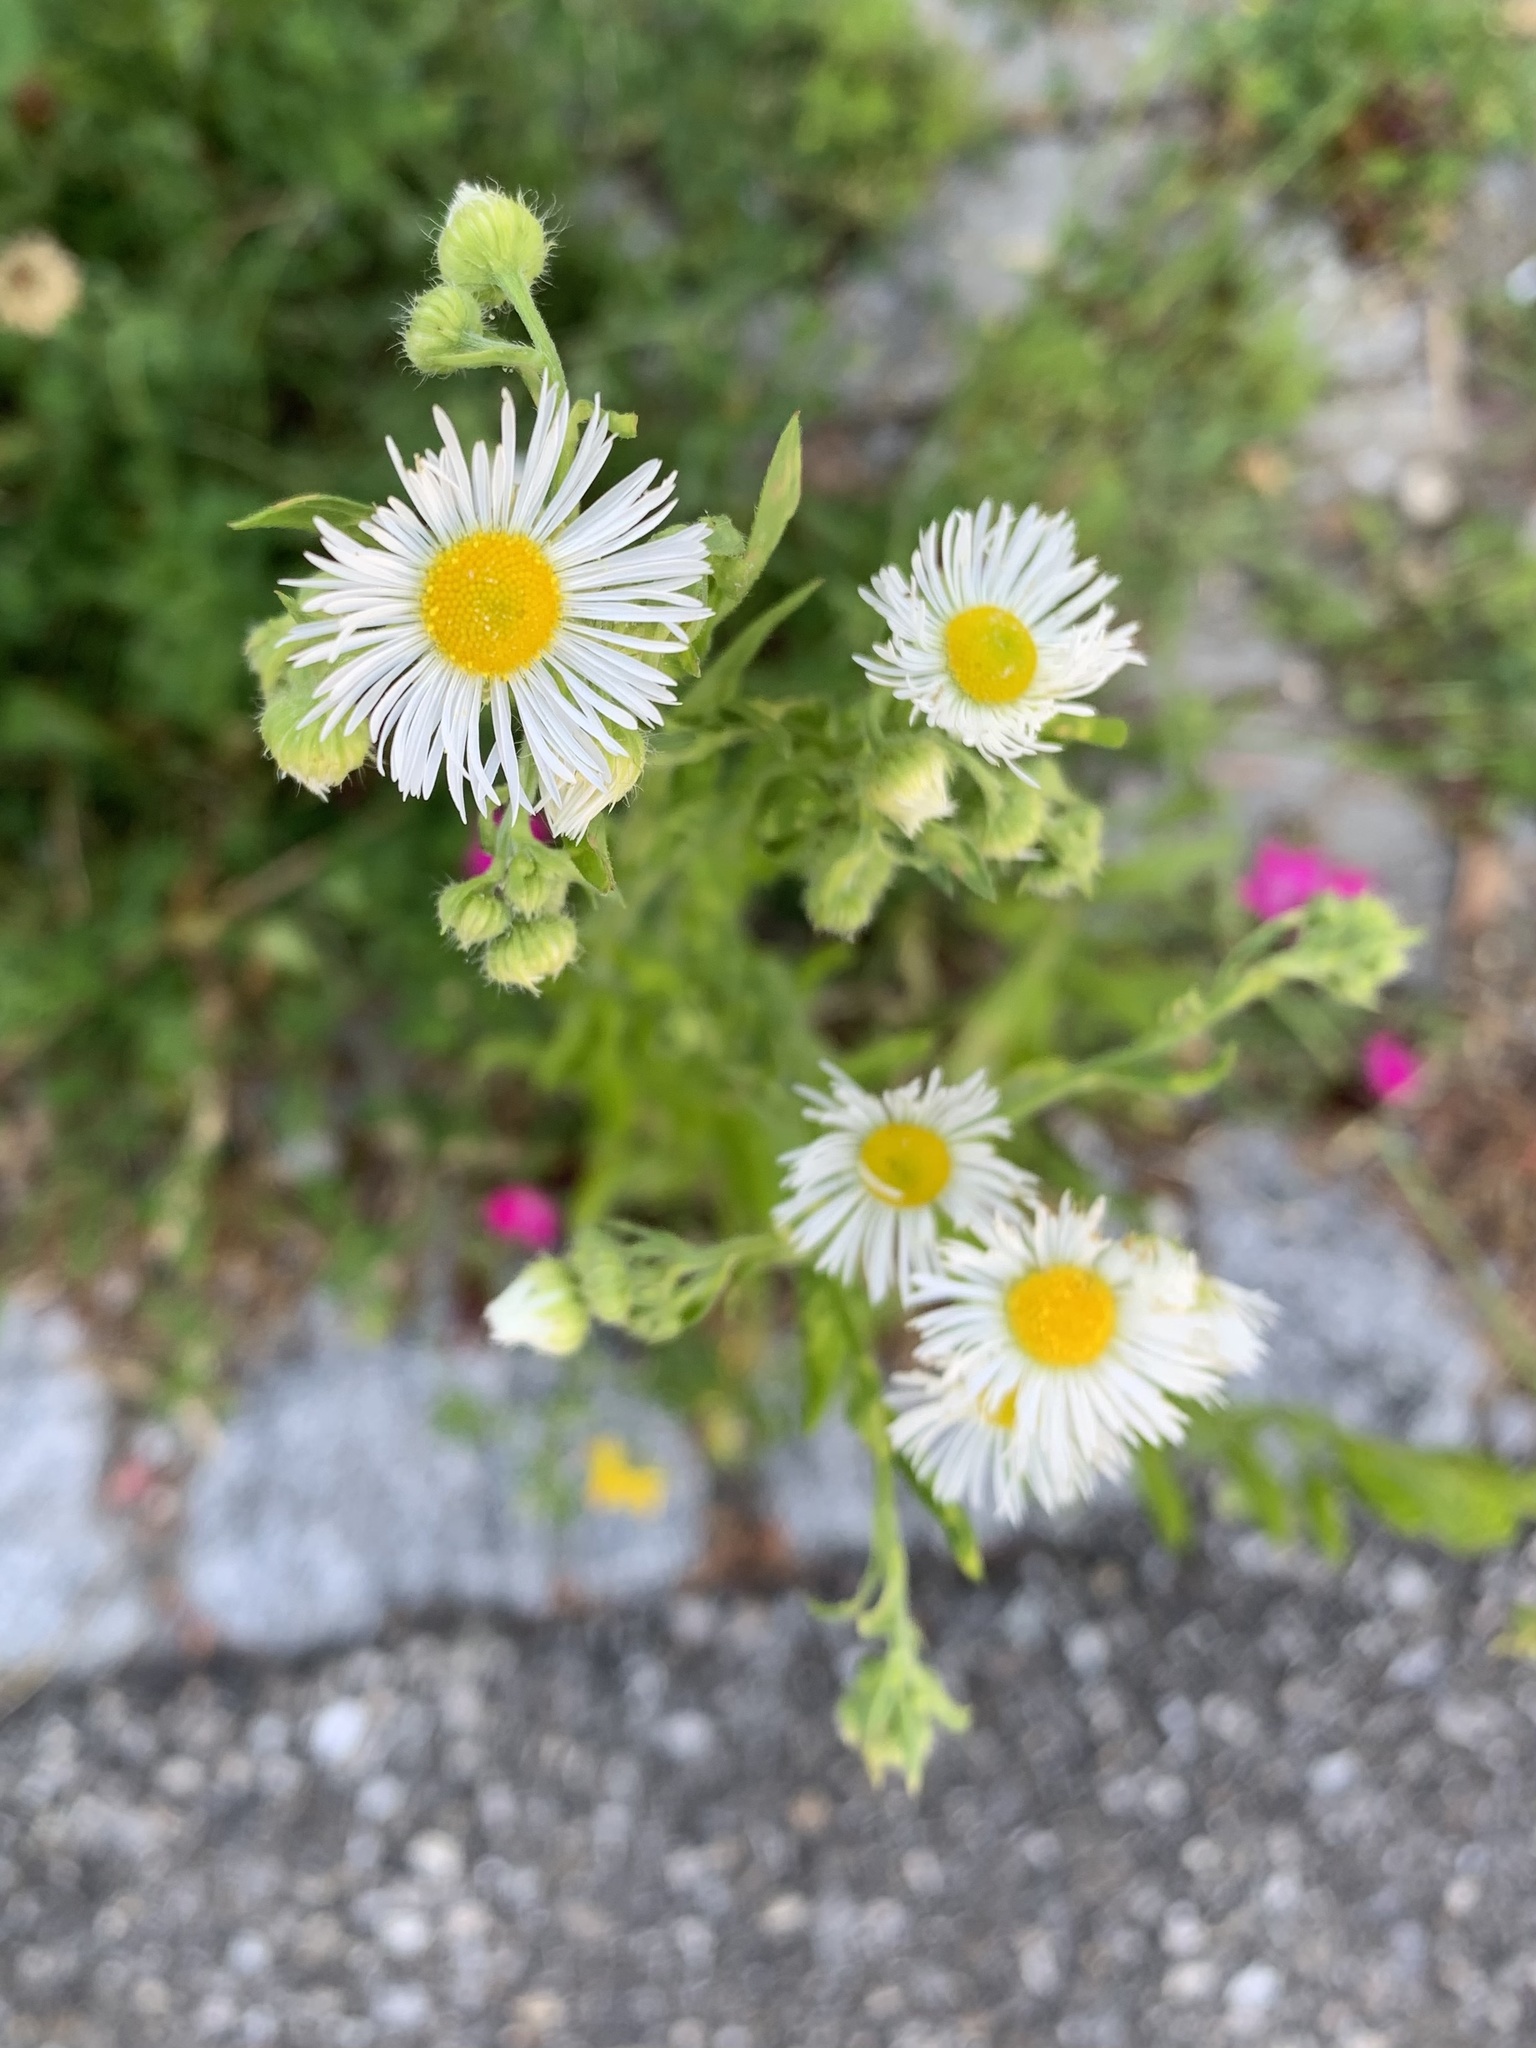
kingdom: Plantae
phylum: Tracheophyta
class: Magnoliopsida
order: Asterales
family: Asteraceae
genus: Erigeron
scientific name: Erigeron annuus
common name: Tall fleabane
